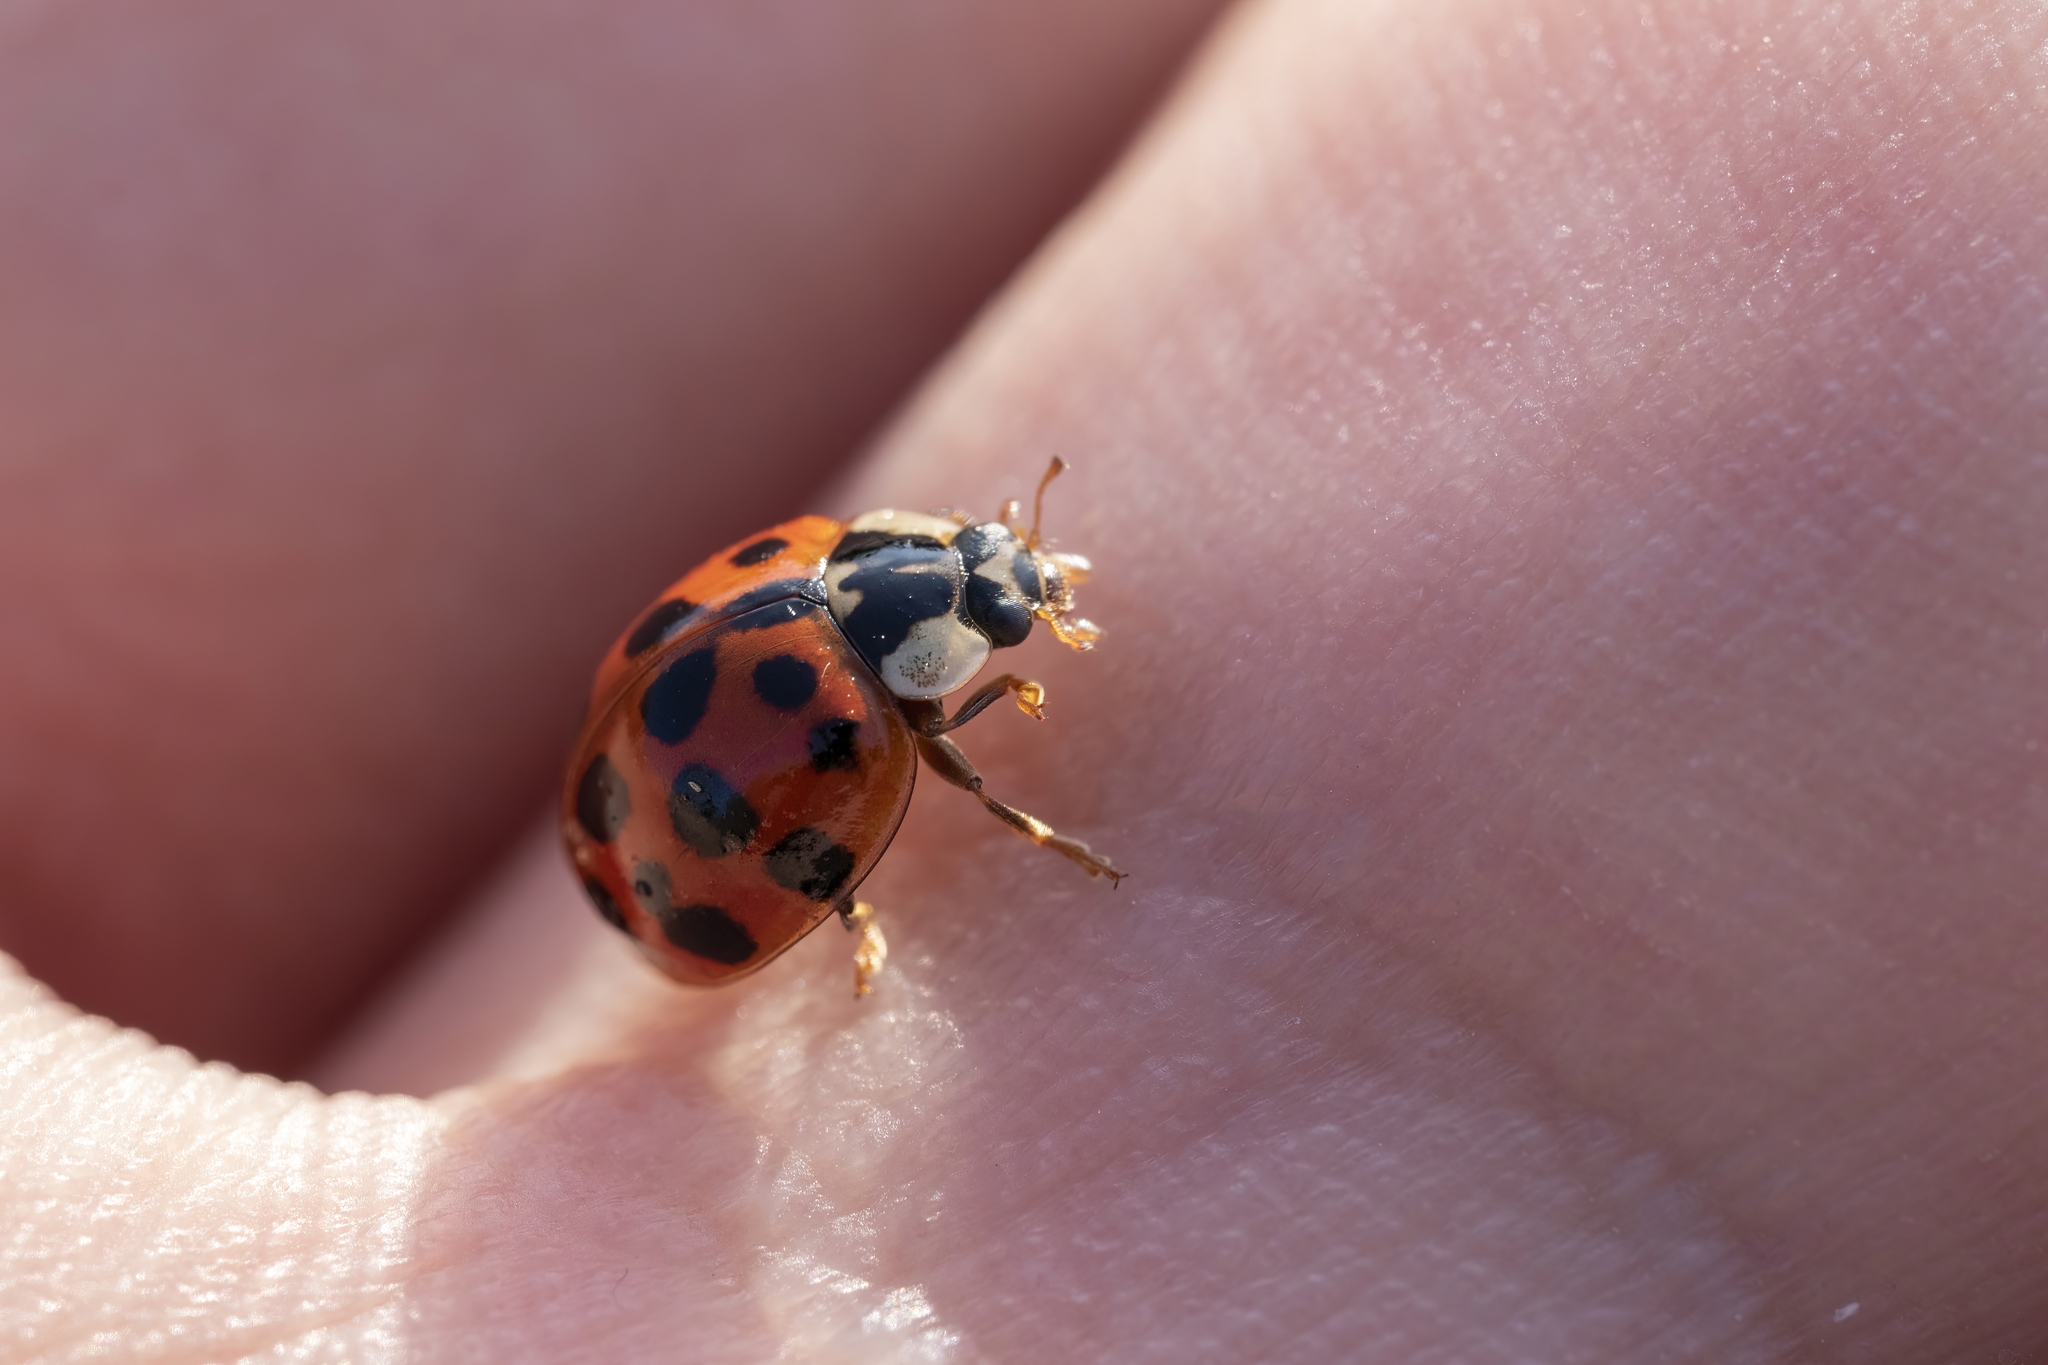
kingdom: Animalia
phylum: Arthropoda
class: Insecta
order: Coleoptera
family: Coccinellidae
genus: Harmonia
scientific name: Harmonia axyridis
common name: Harlequin ladybird
